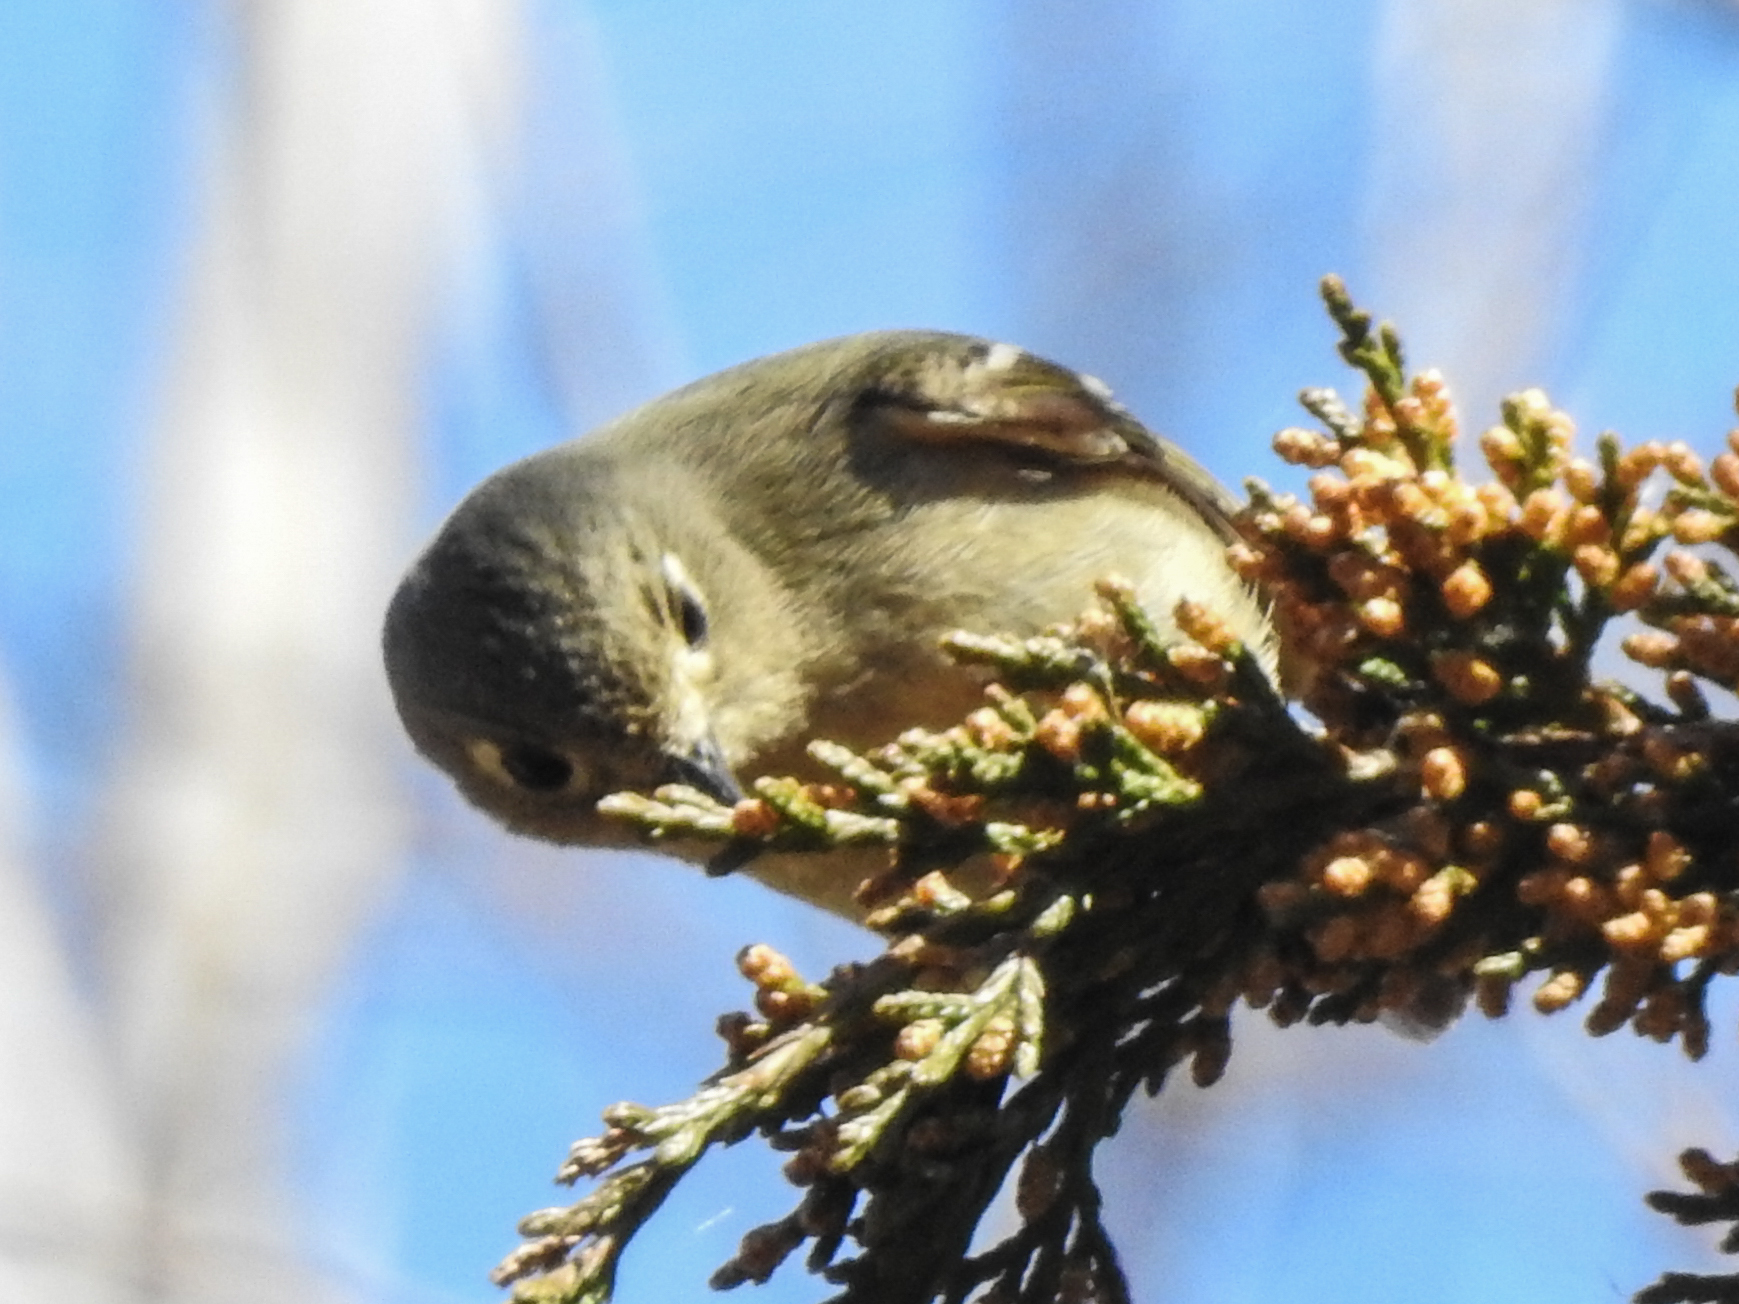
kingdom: Animalia
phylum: Chordata
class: Aves
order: Passeriformes
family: Regulidae
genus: Regulus
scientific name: Regulus calendula
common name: Ruby-crowned kinglet
